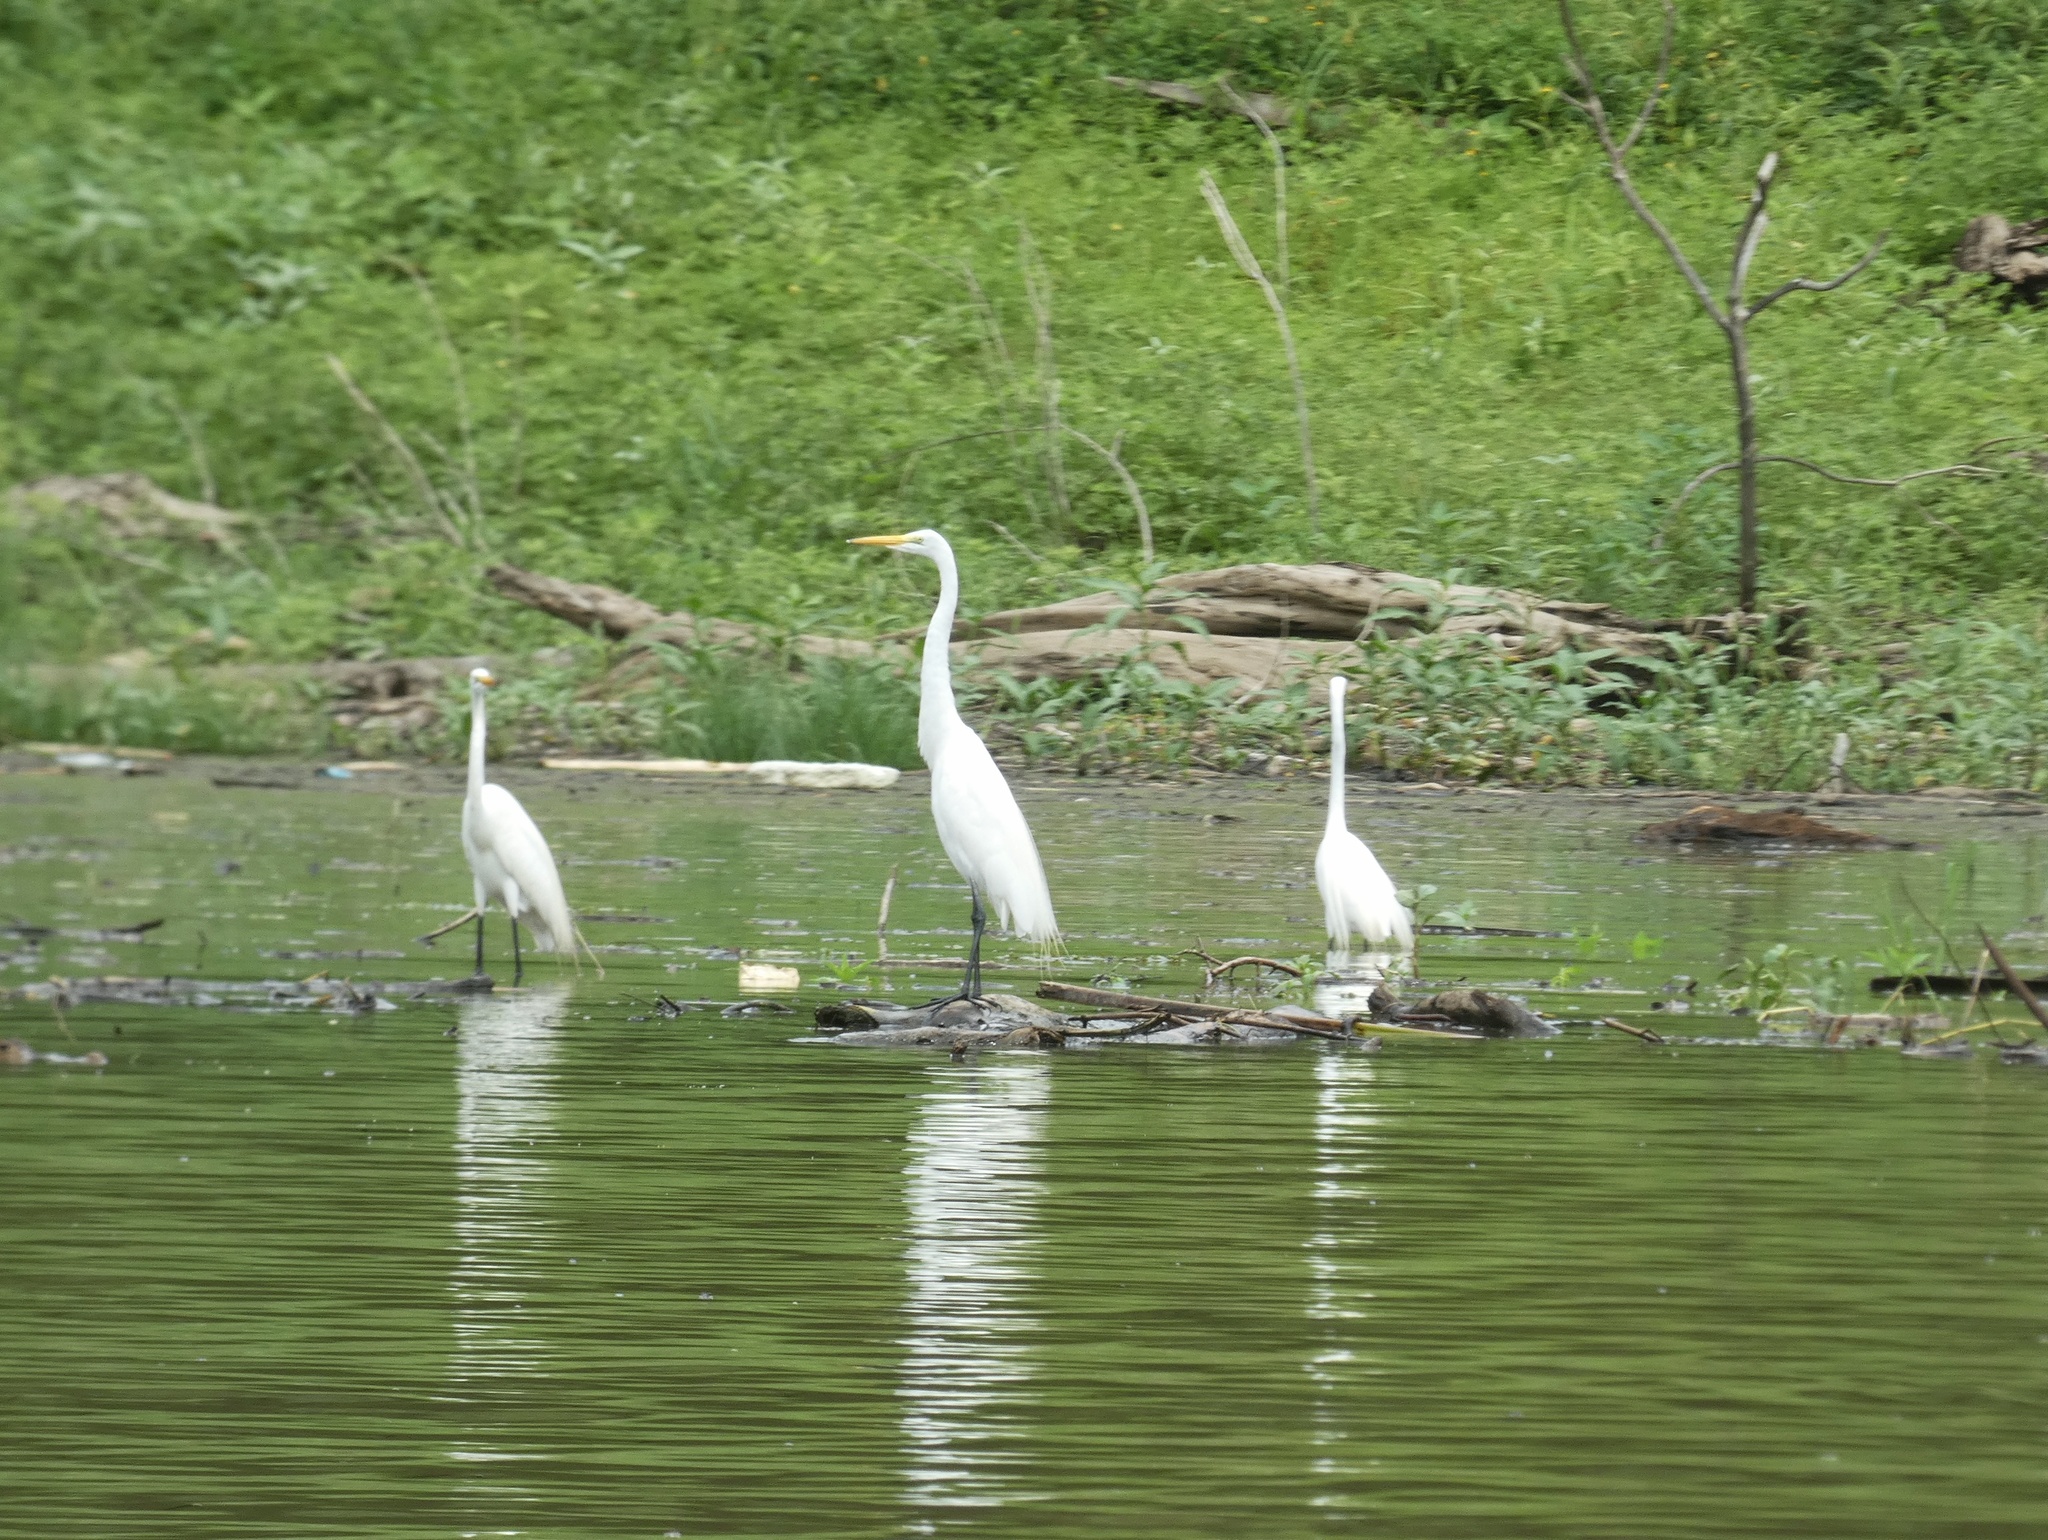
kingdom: Animalia
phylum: Chordata
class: Aves
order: Pelecaniformes
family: Ardeidae
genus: Ardea
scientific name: Ardea alba
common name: Great egret
